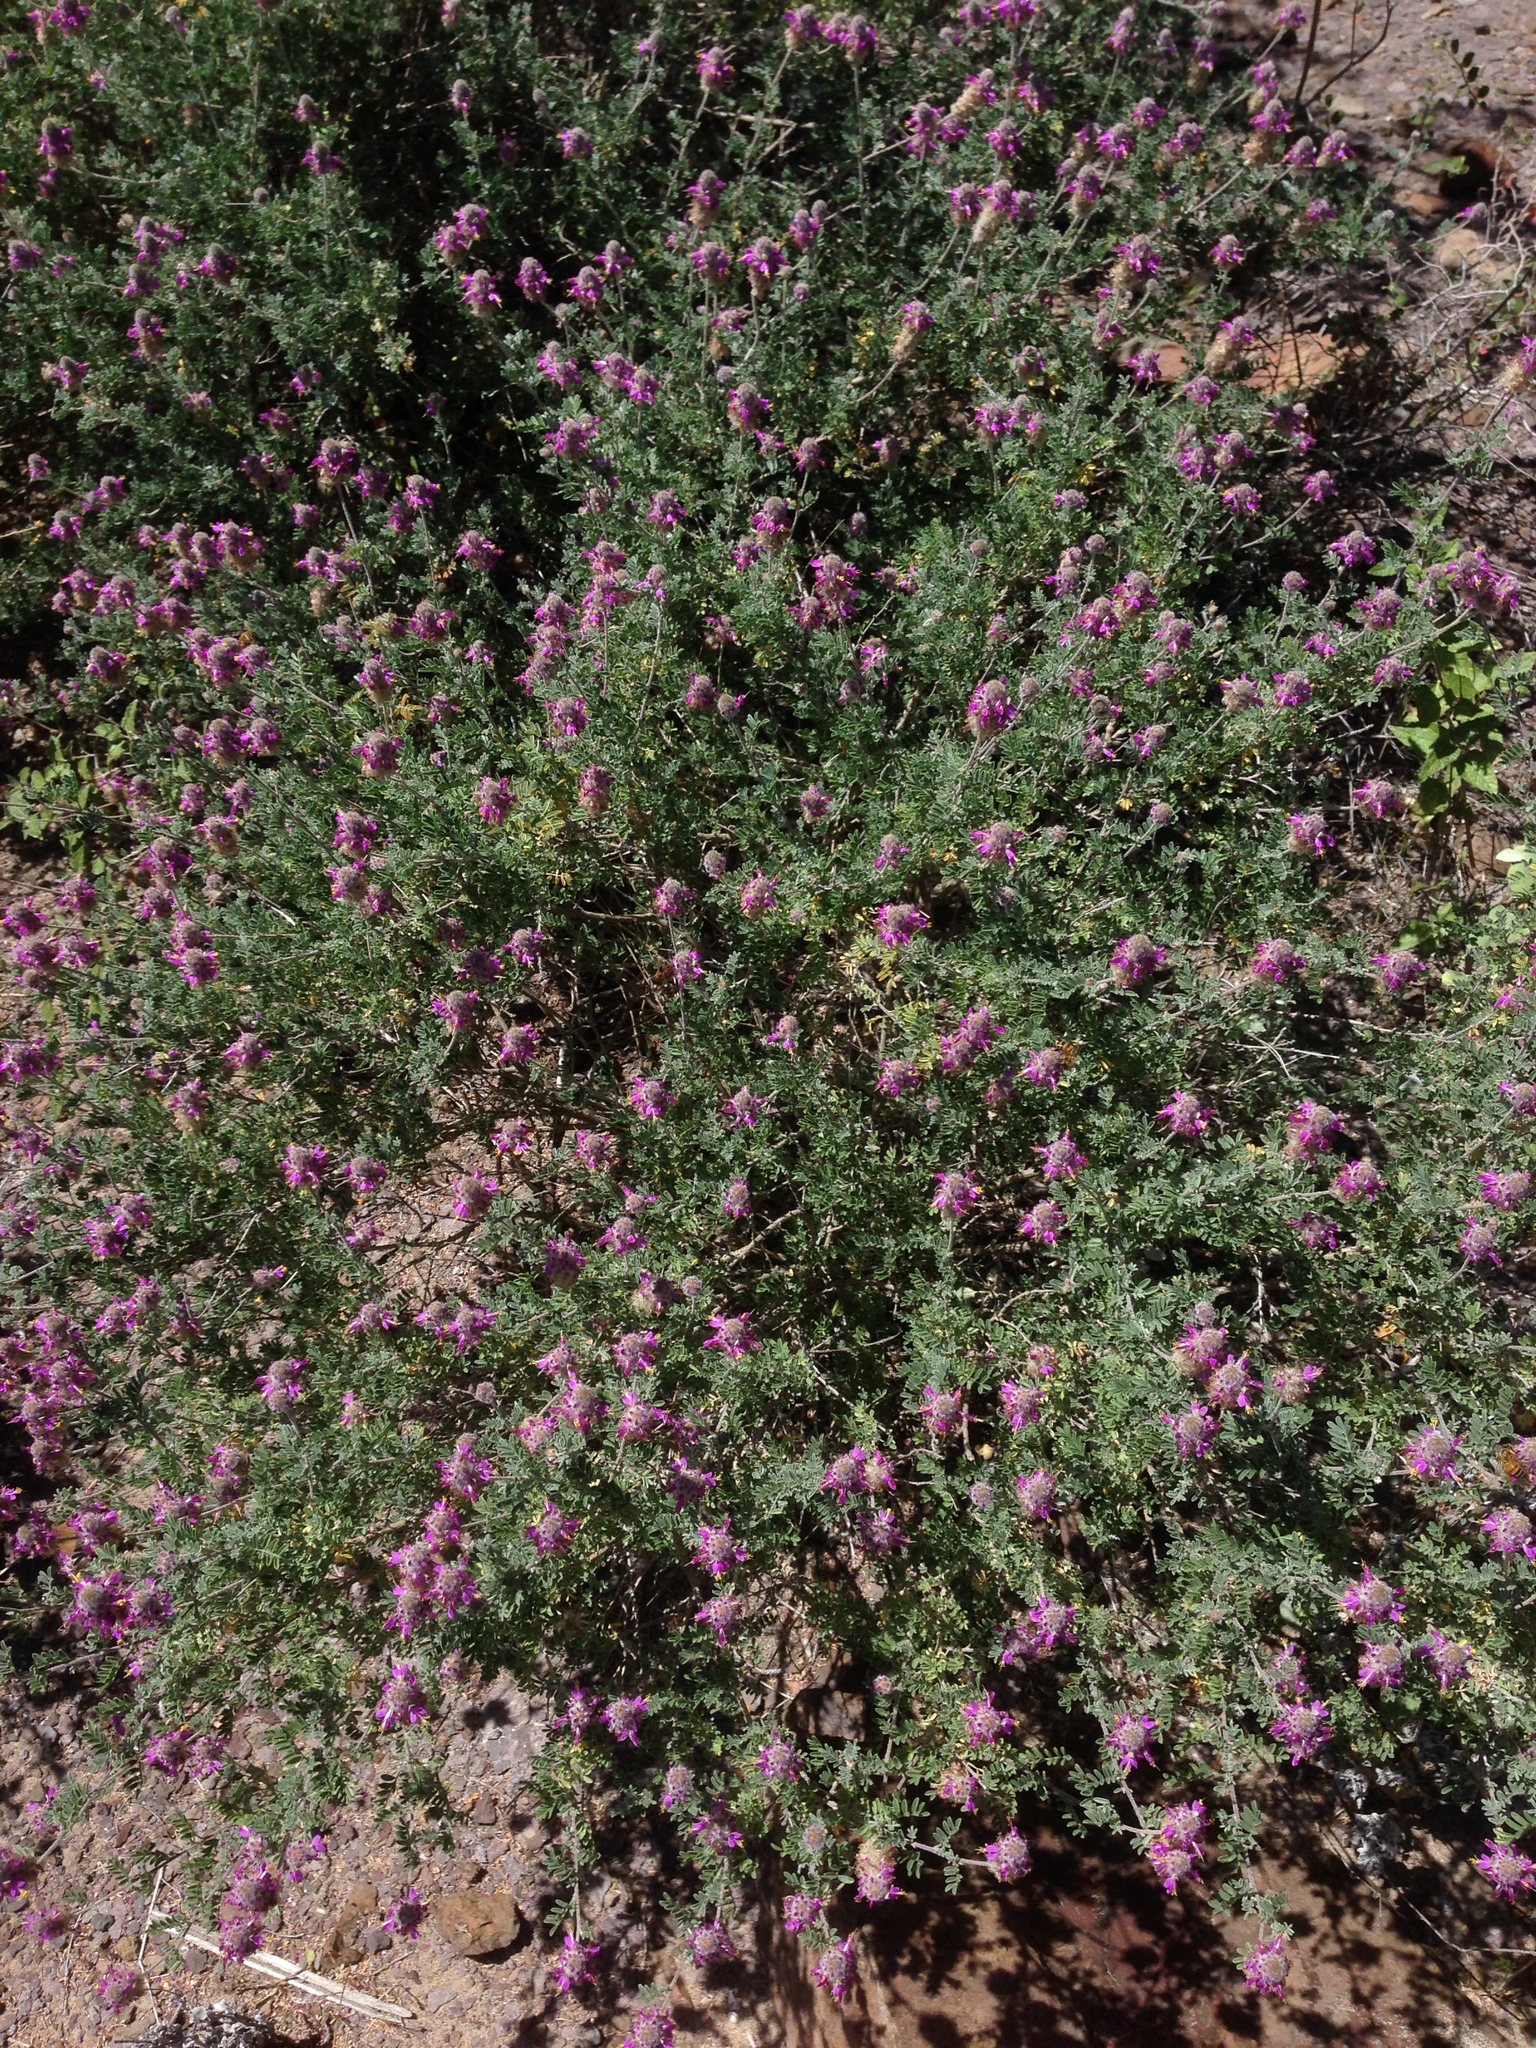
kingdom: Plantae
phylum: Tracheophyta
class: Magnoliopsida
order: Fabales
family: Fabaceae
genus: Dalea
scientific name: Dalea bicolor
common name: Silver prairie-clover
